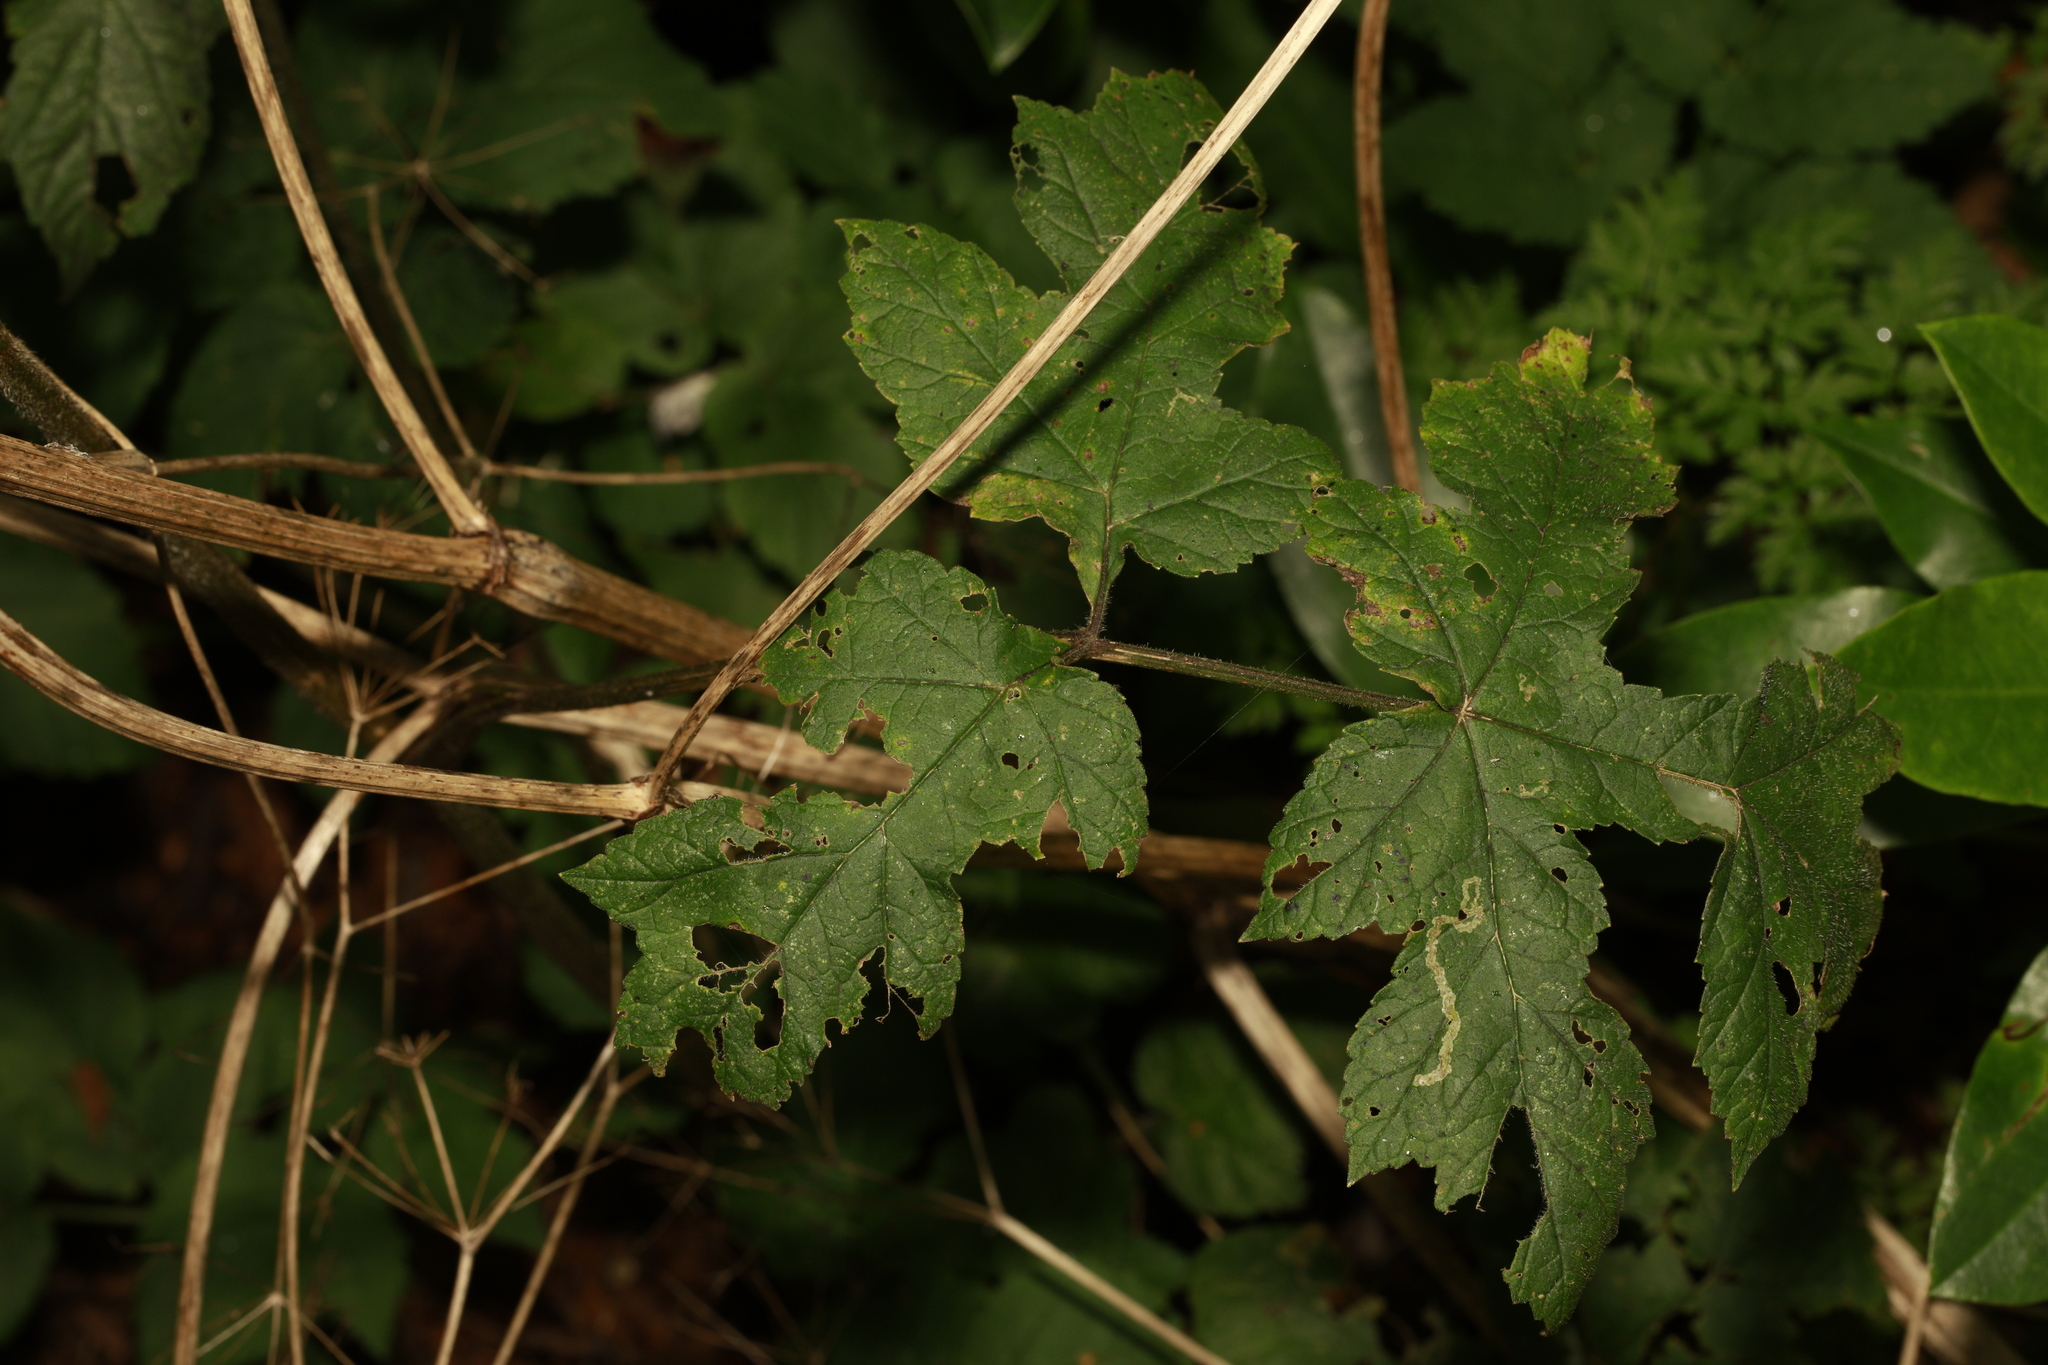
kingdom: Plantae
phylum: Tracheophyta
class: Magnoliopsida
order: Apiales
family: Apiaceae
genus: Heracleum
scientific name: Heracleum sphondylium
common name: Hogweed
